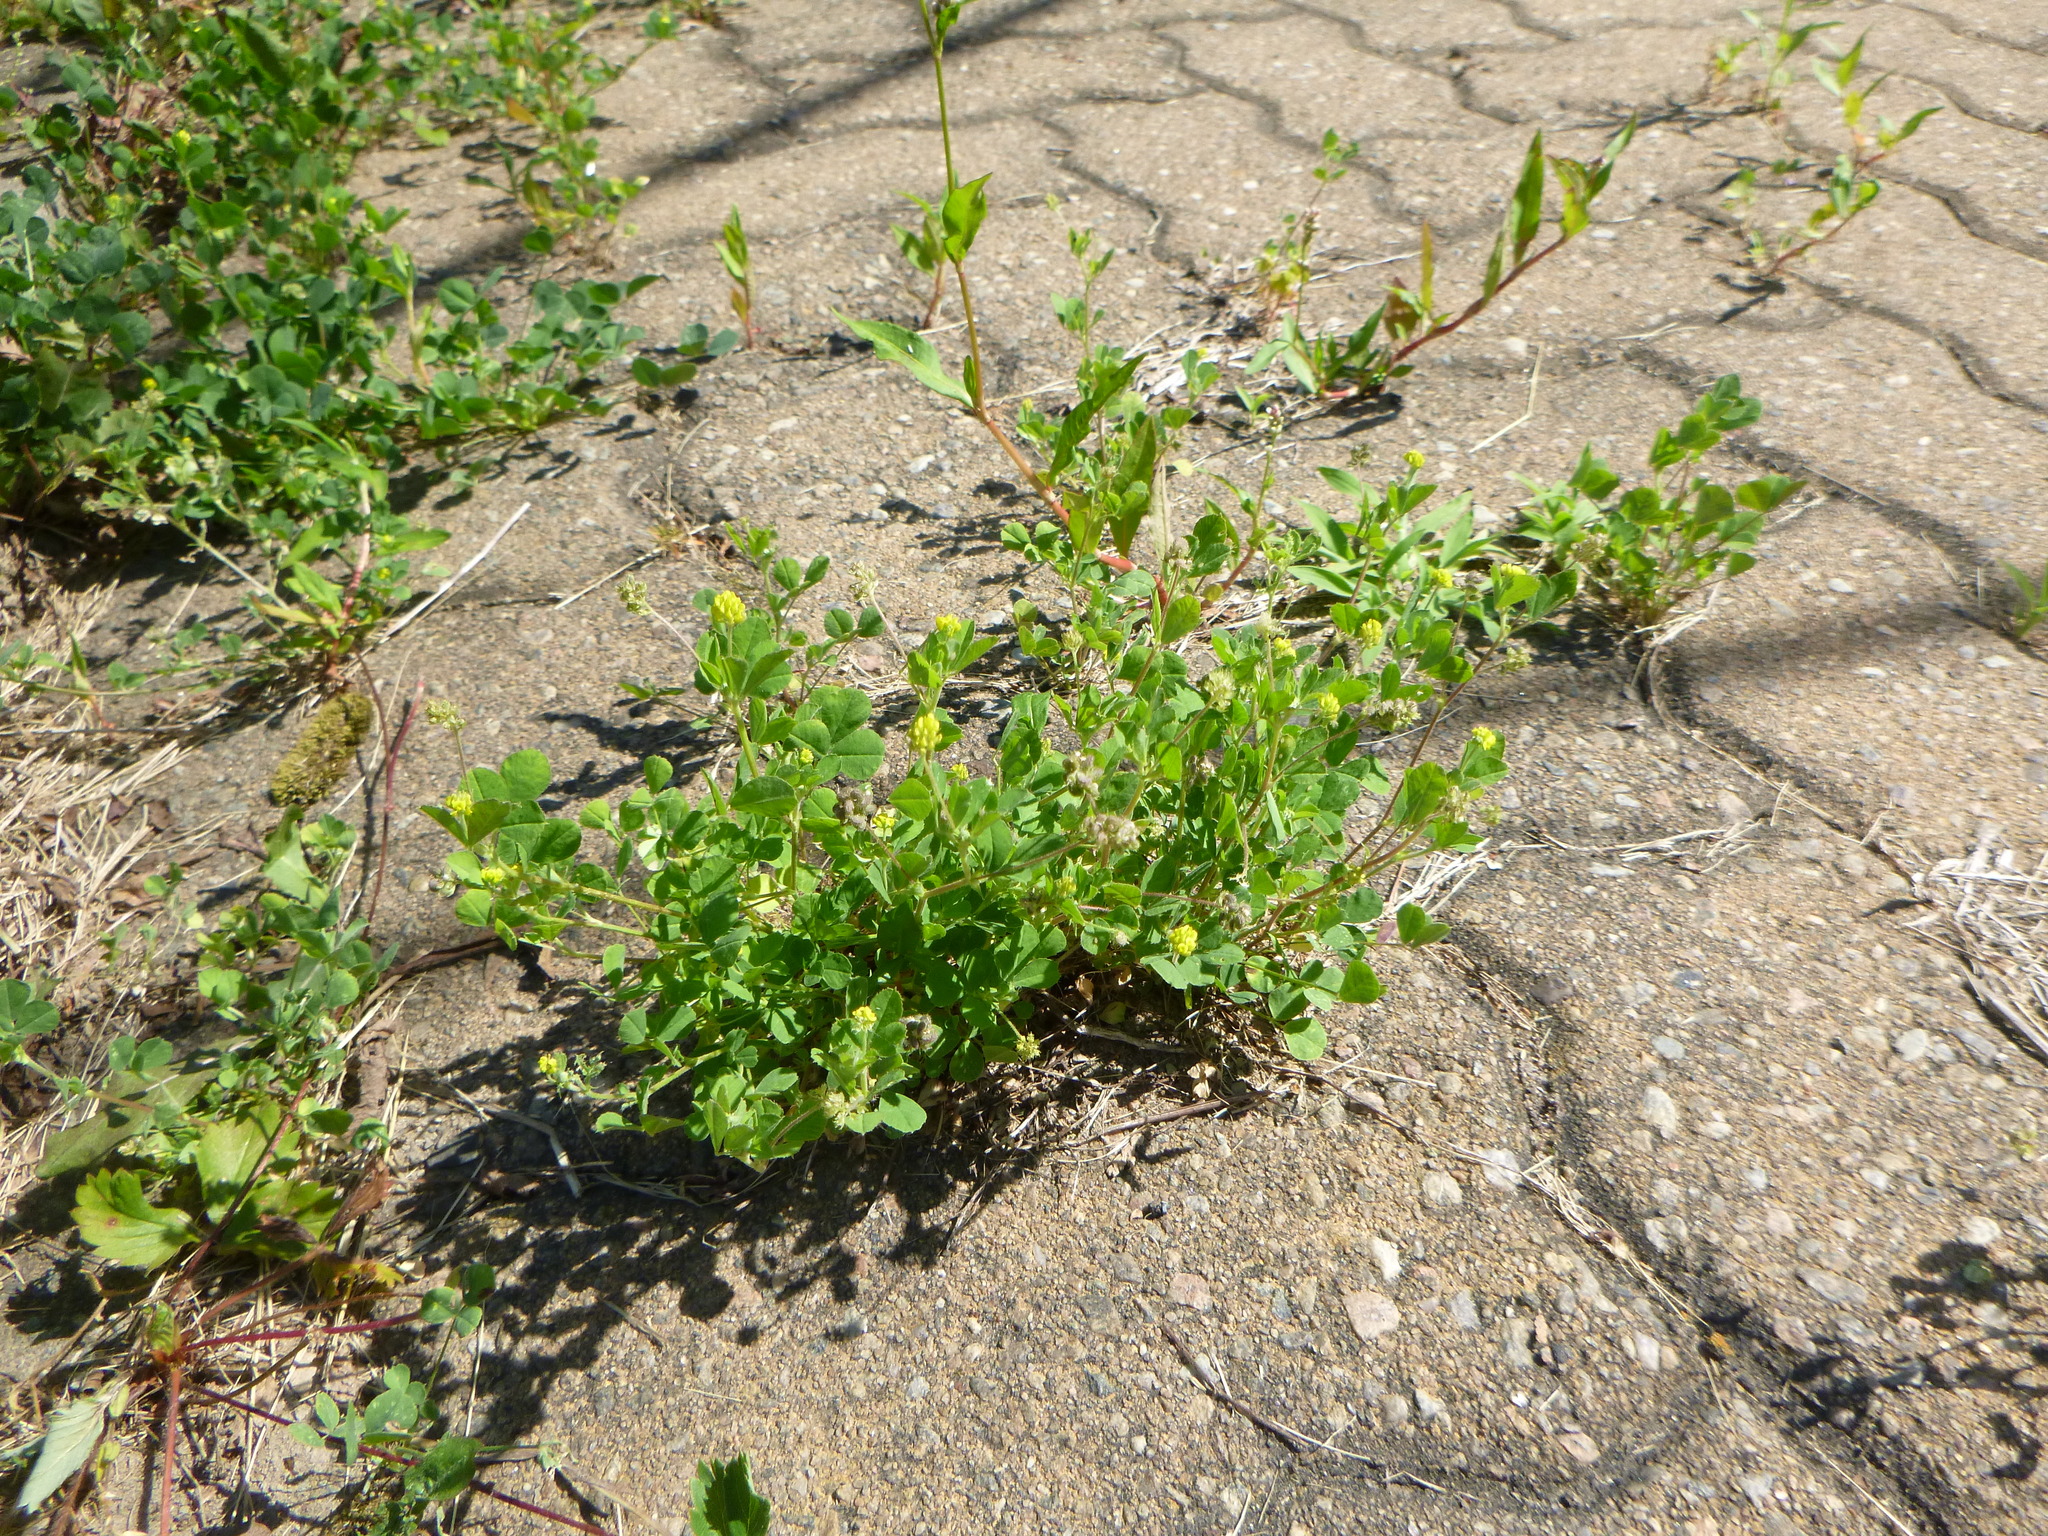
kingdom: Plantae
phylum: Tracheophyta
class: Magnoliopsida
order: Fabales
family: Fabaceae
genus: Medicago
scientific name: Medicago lupulina
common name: Black medick
